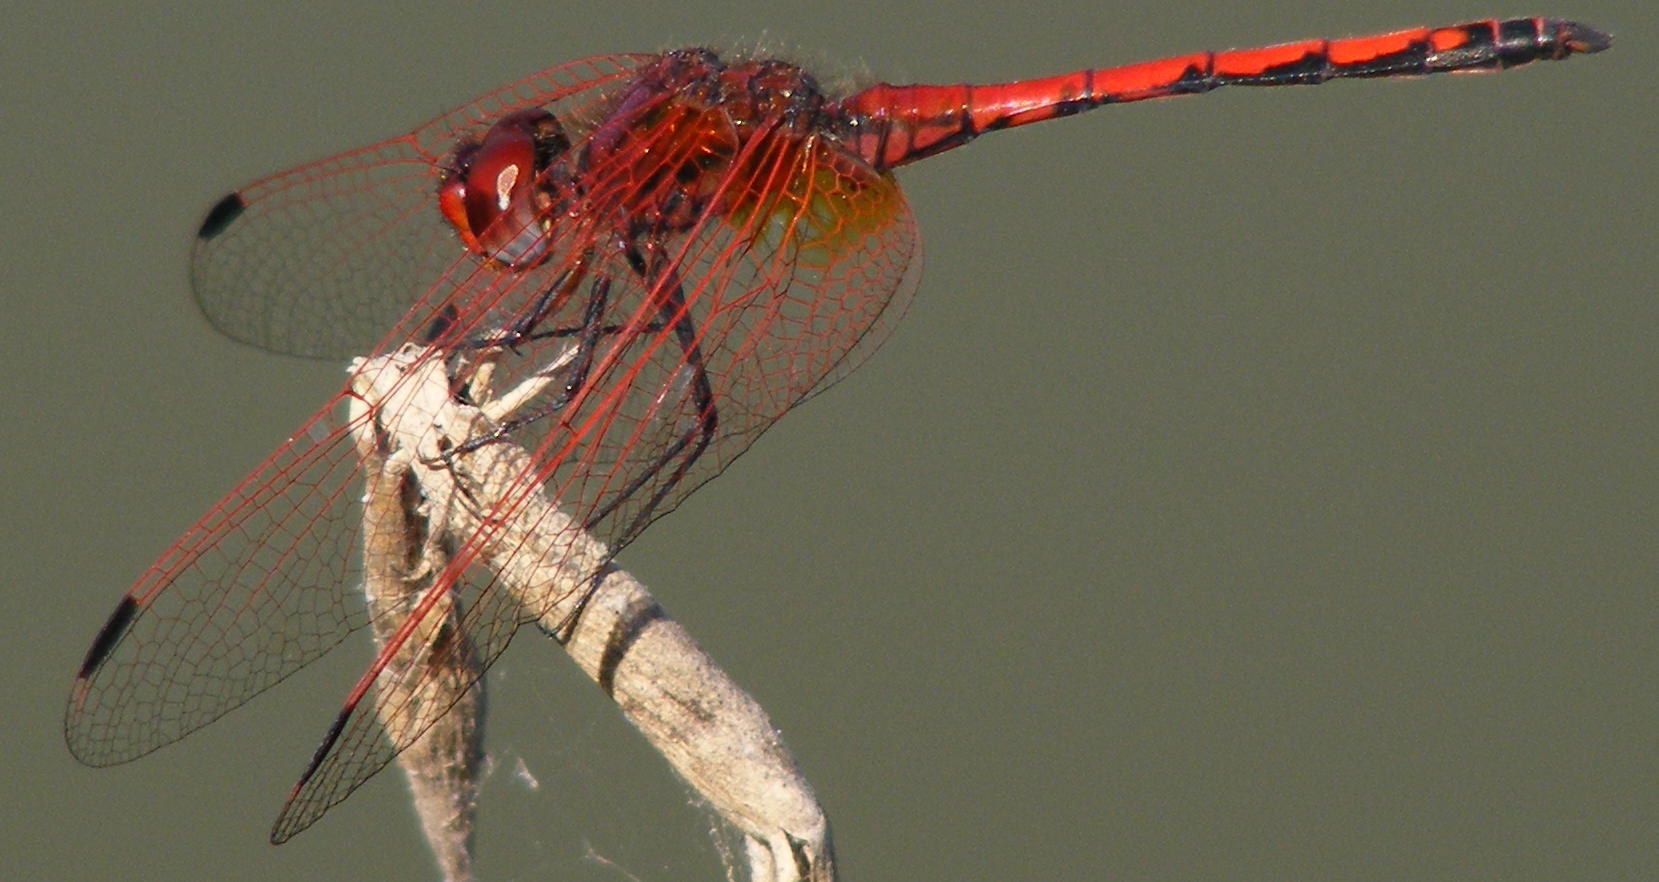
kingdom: Animalia
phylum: Arthropoda
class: Insecta
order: Odonata
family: Libellulidae
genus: Trithemis
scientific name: Trithemis arteriosa
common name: Red-veined dropwing
